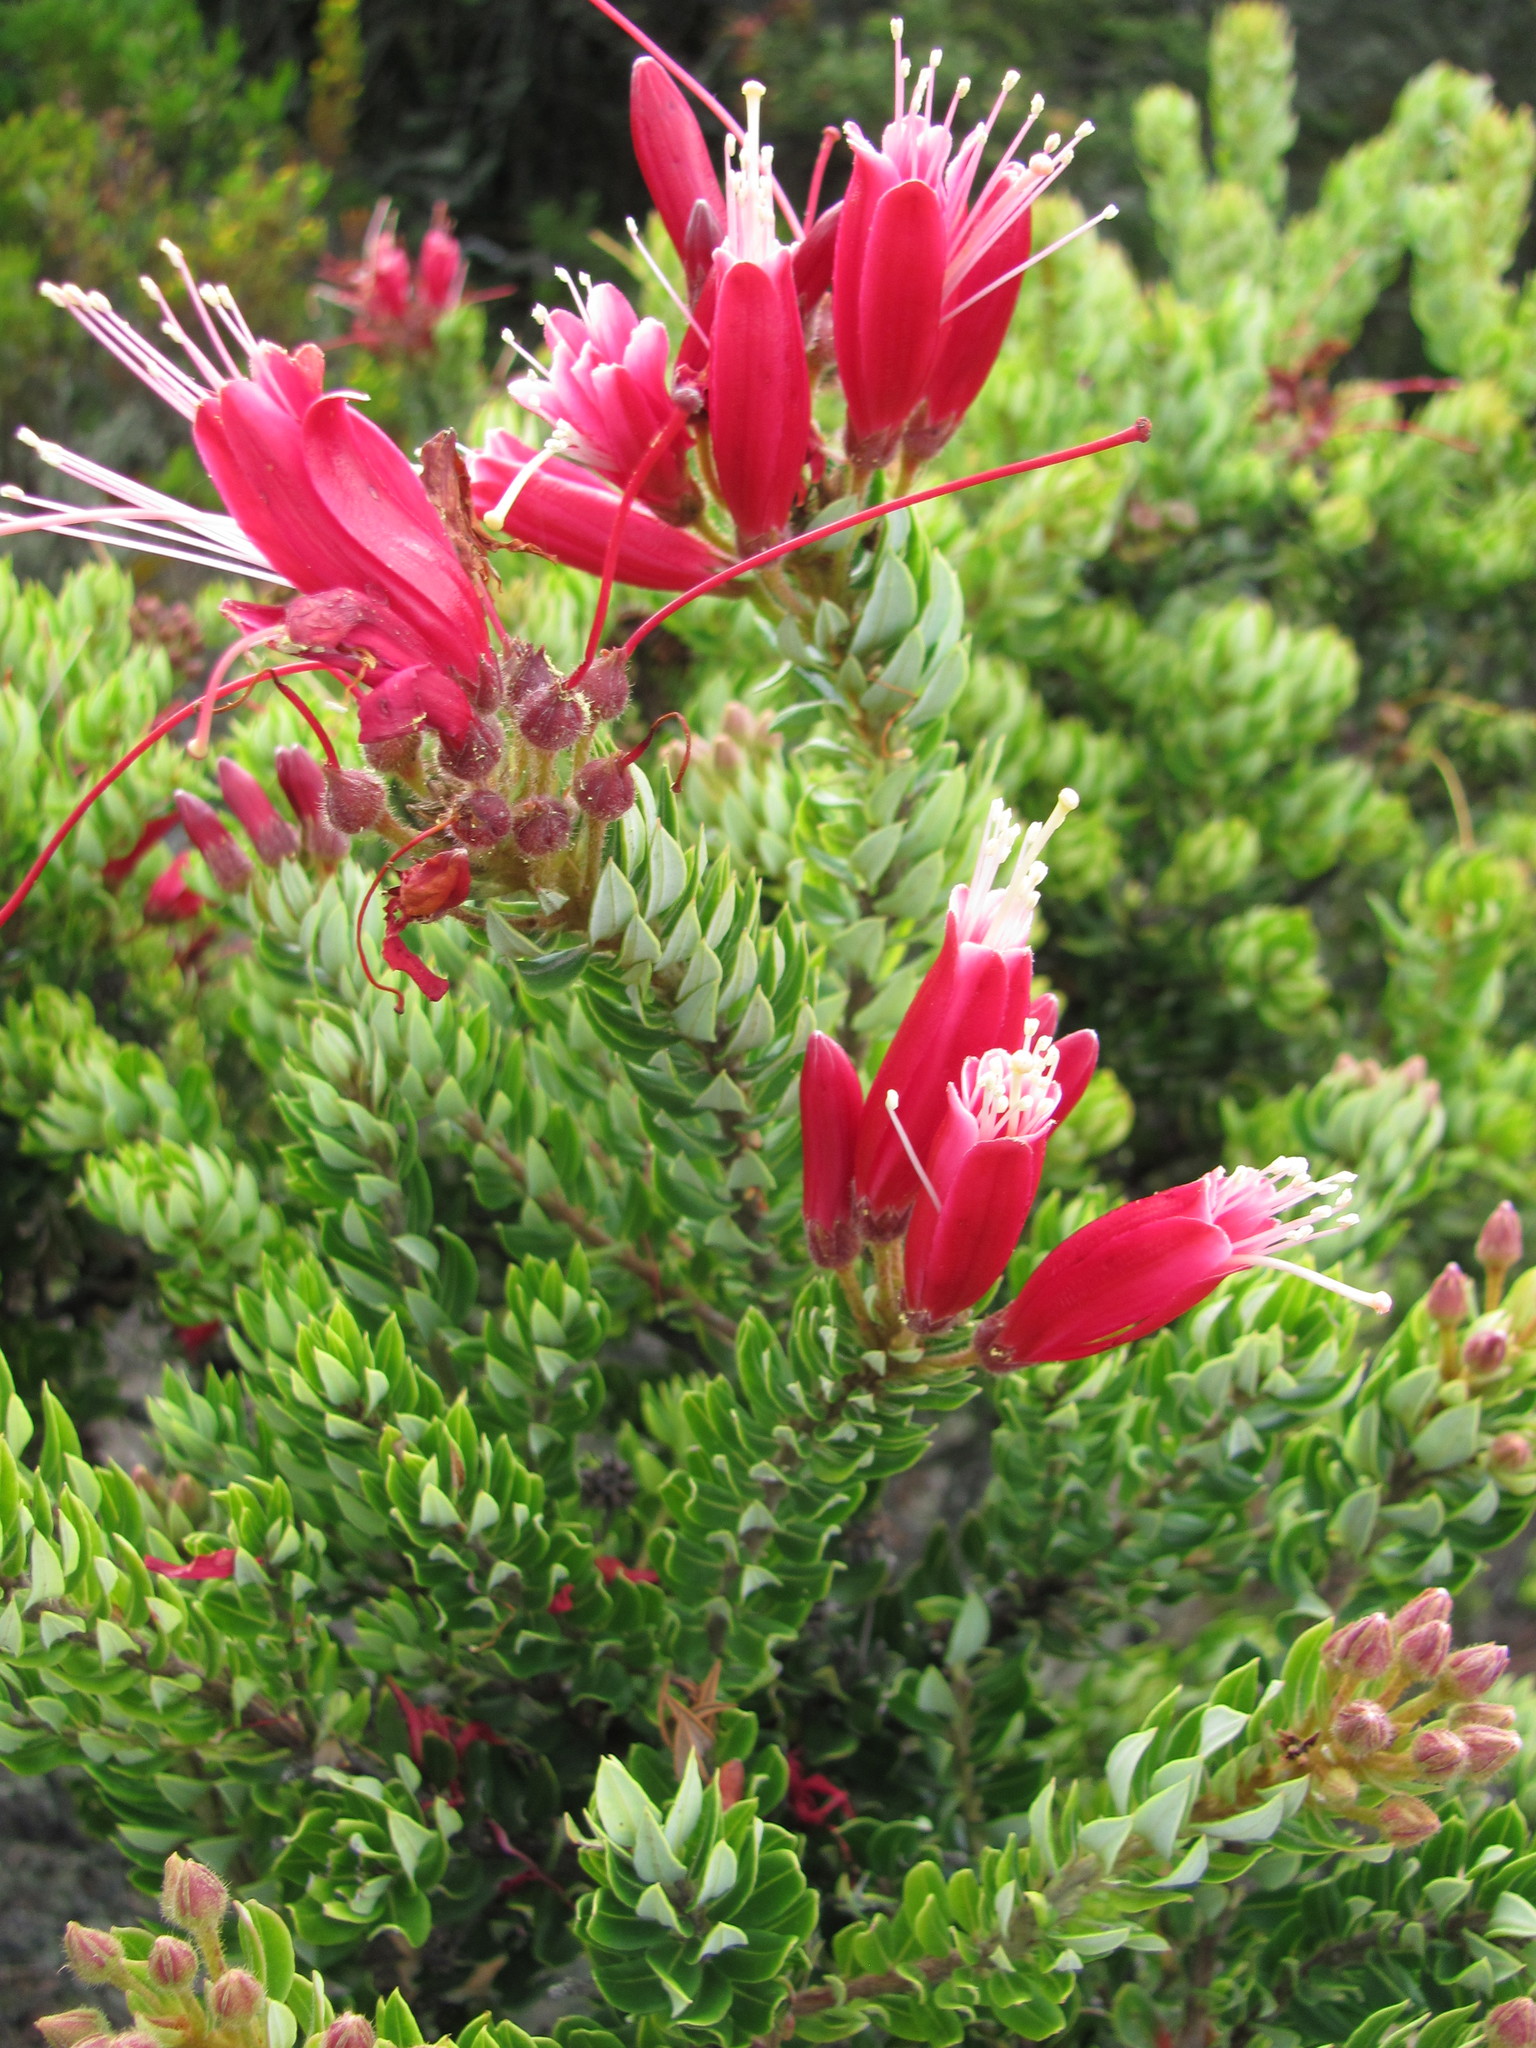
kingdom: Plantae
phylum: Tracheophyta
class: Magnoliopsida
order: Ericales
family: Ericaceae
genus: Bejaria
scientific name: Bejaria resinosa
